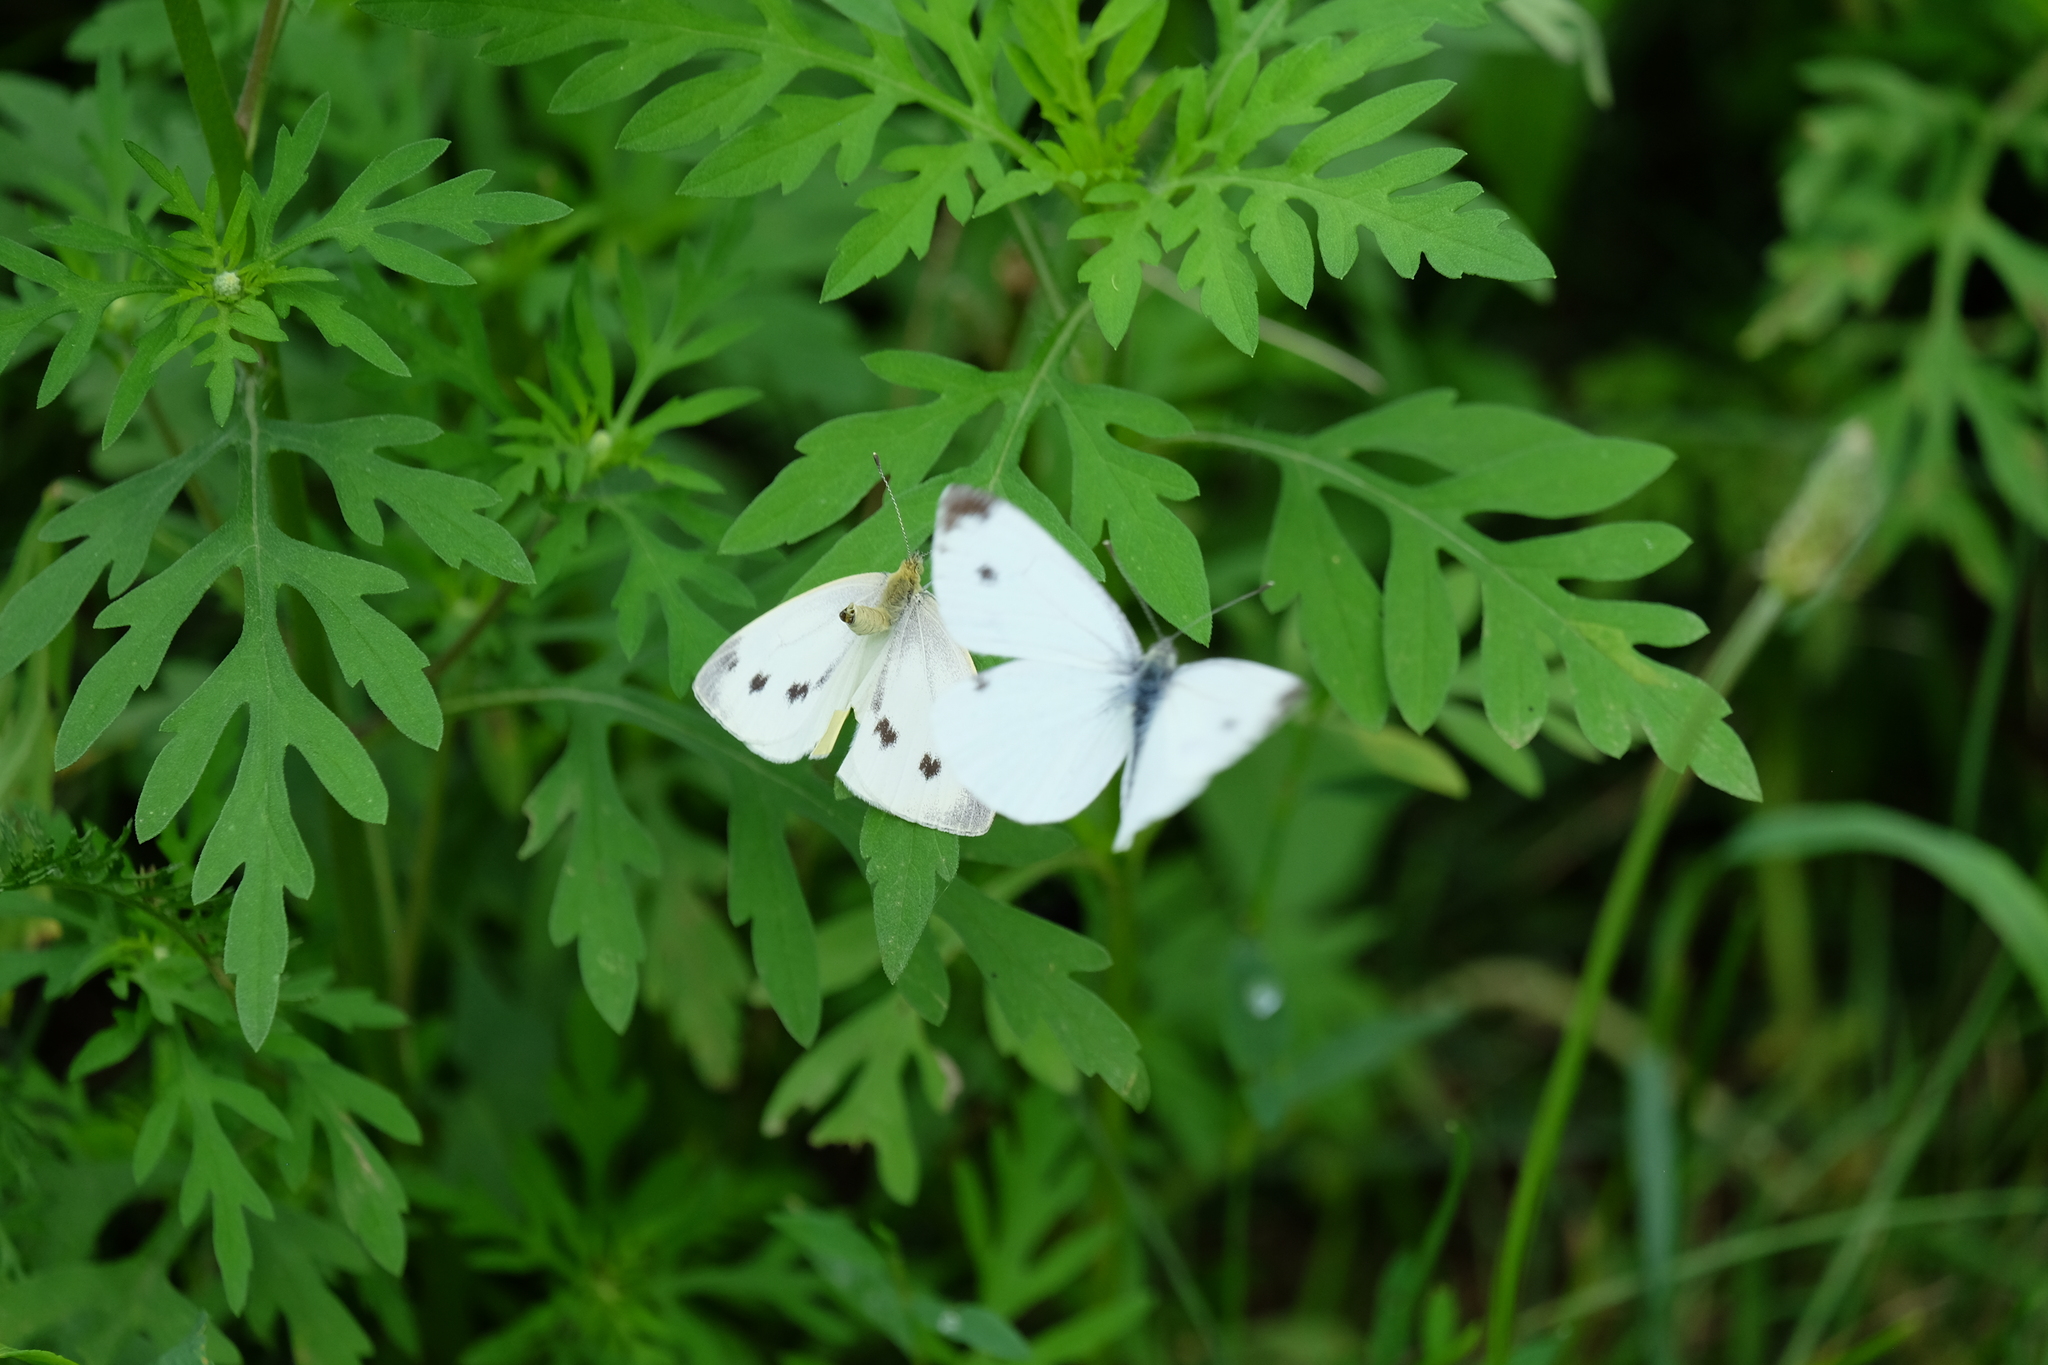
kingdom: Animalia
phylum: Arthropoda
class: Insecta
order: Lepidoptera
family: Pieridae
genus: Pieris
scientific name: Pieris napi
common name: Green-veined white
